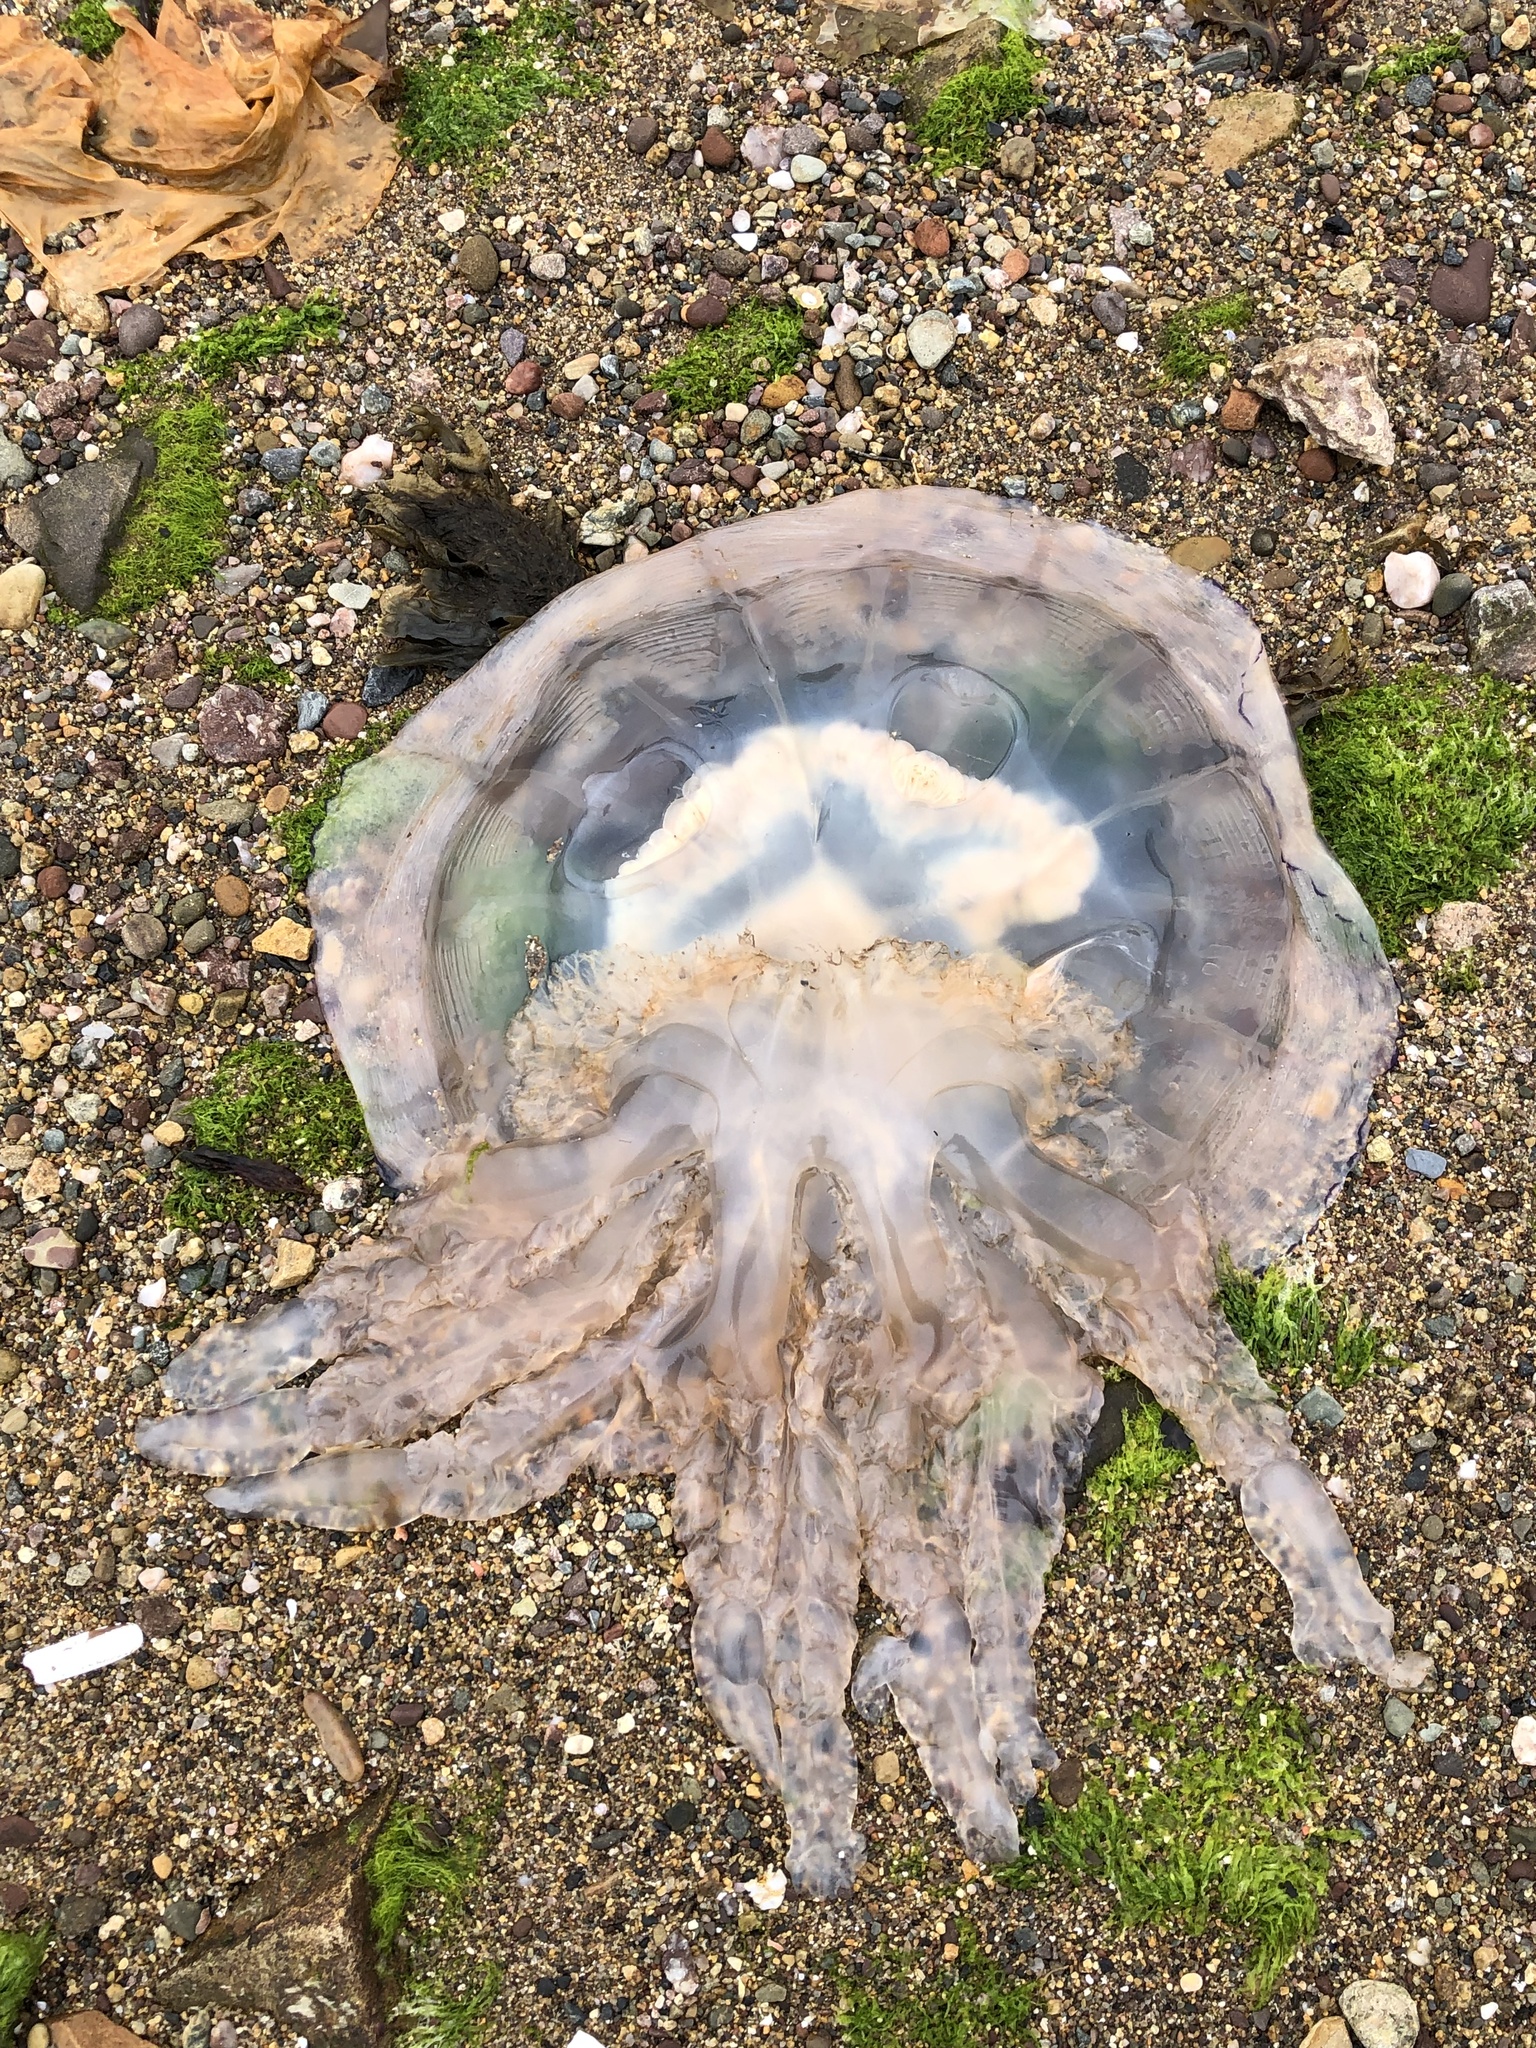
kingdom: Animalia
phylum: Cnidaria
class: Scyphozoa
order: Rhizostomeae
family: Rhizostomatidae
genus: Rhizostoma
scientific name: Rhizostoma octopus
